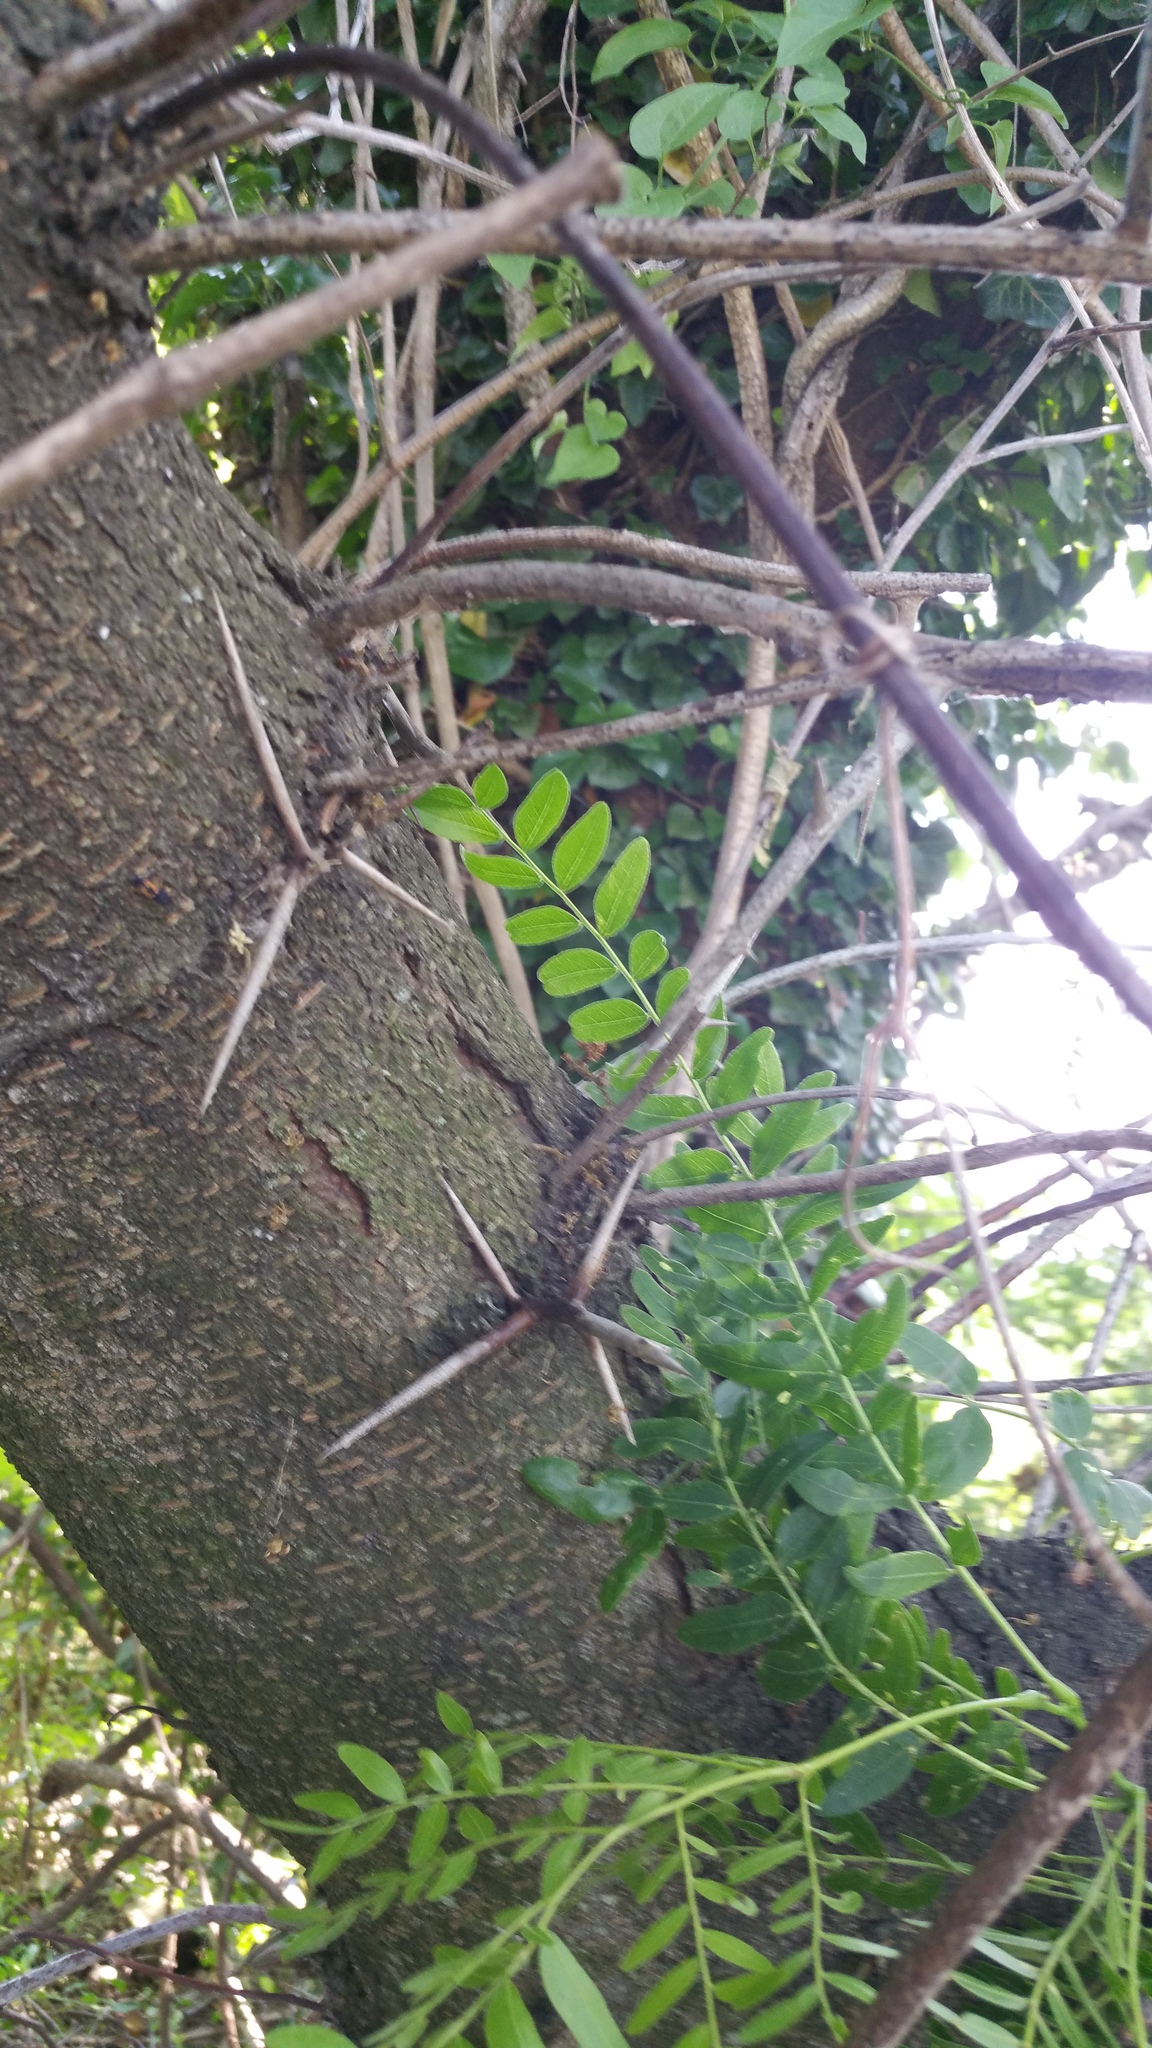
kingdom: Plantae
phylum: Tracheophyta
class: Magnoliopsida
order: Fabales
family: Fabaceae
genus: Gleditsia
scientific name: Gleditsia triacanthos
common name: Common honeylocust
